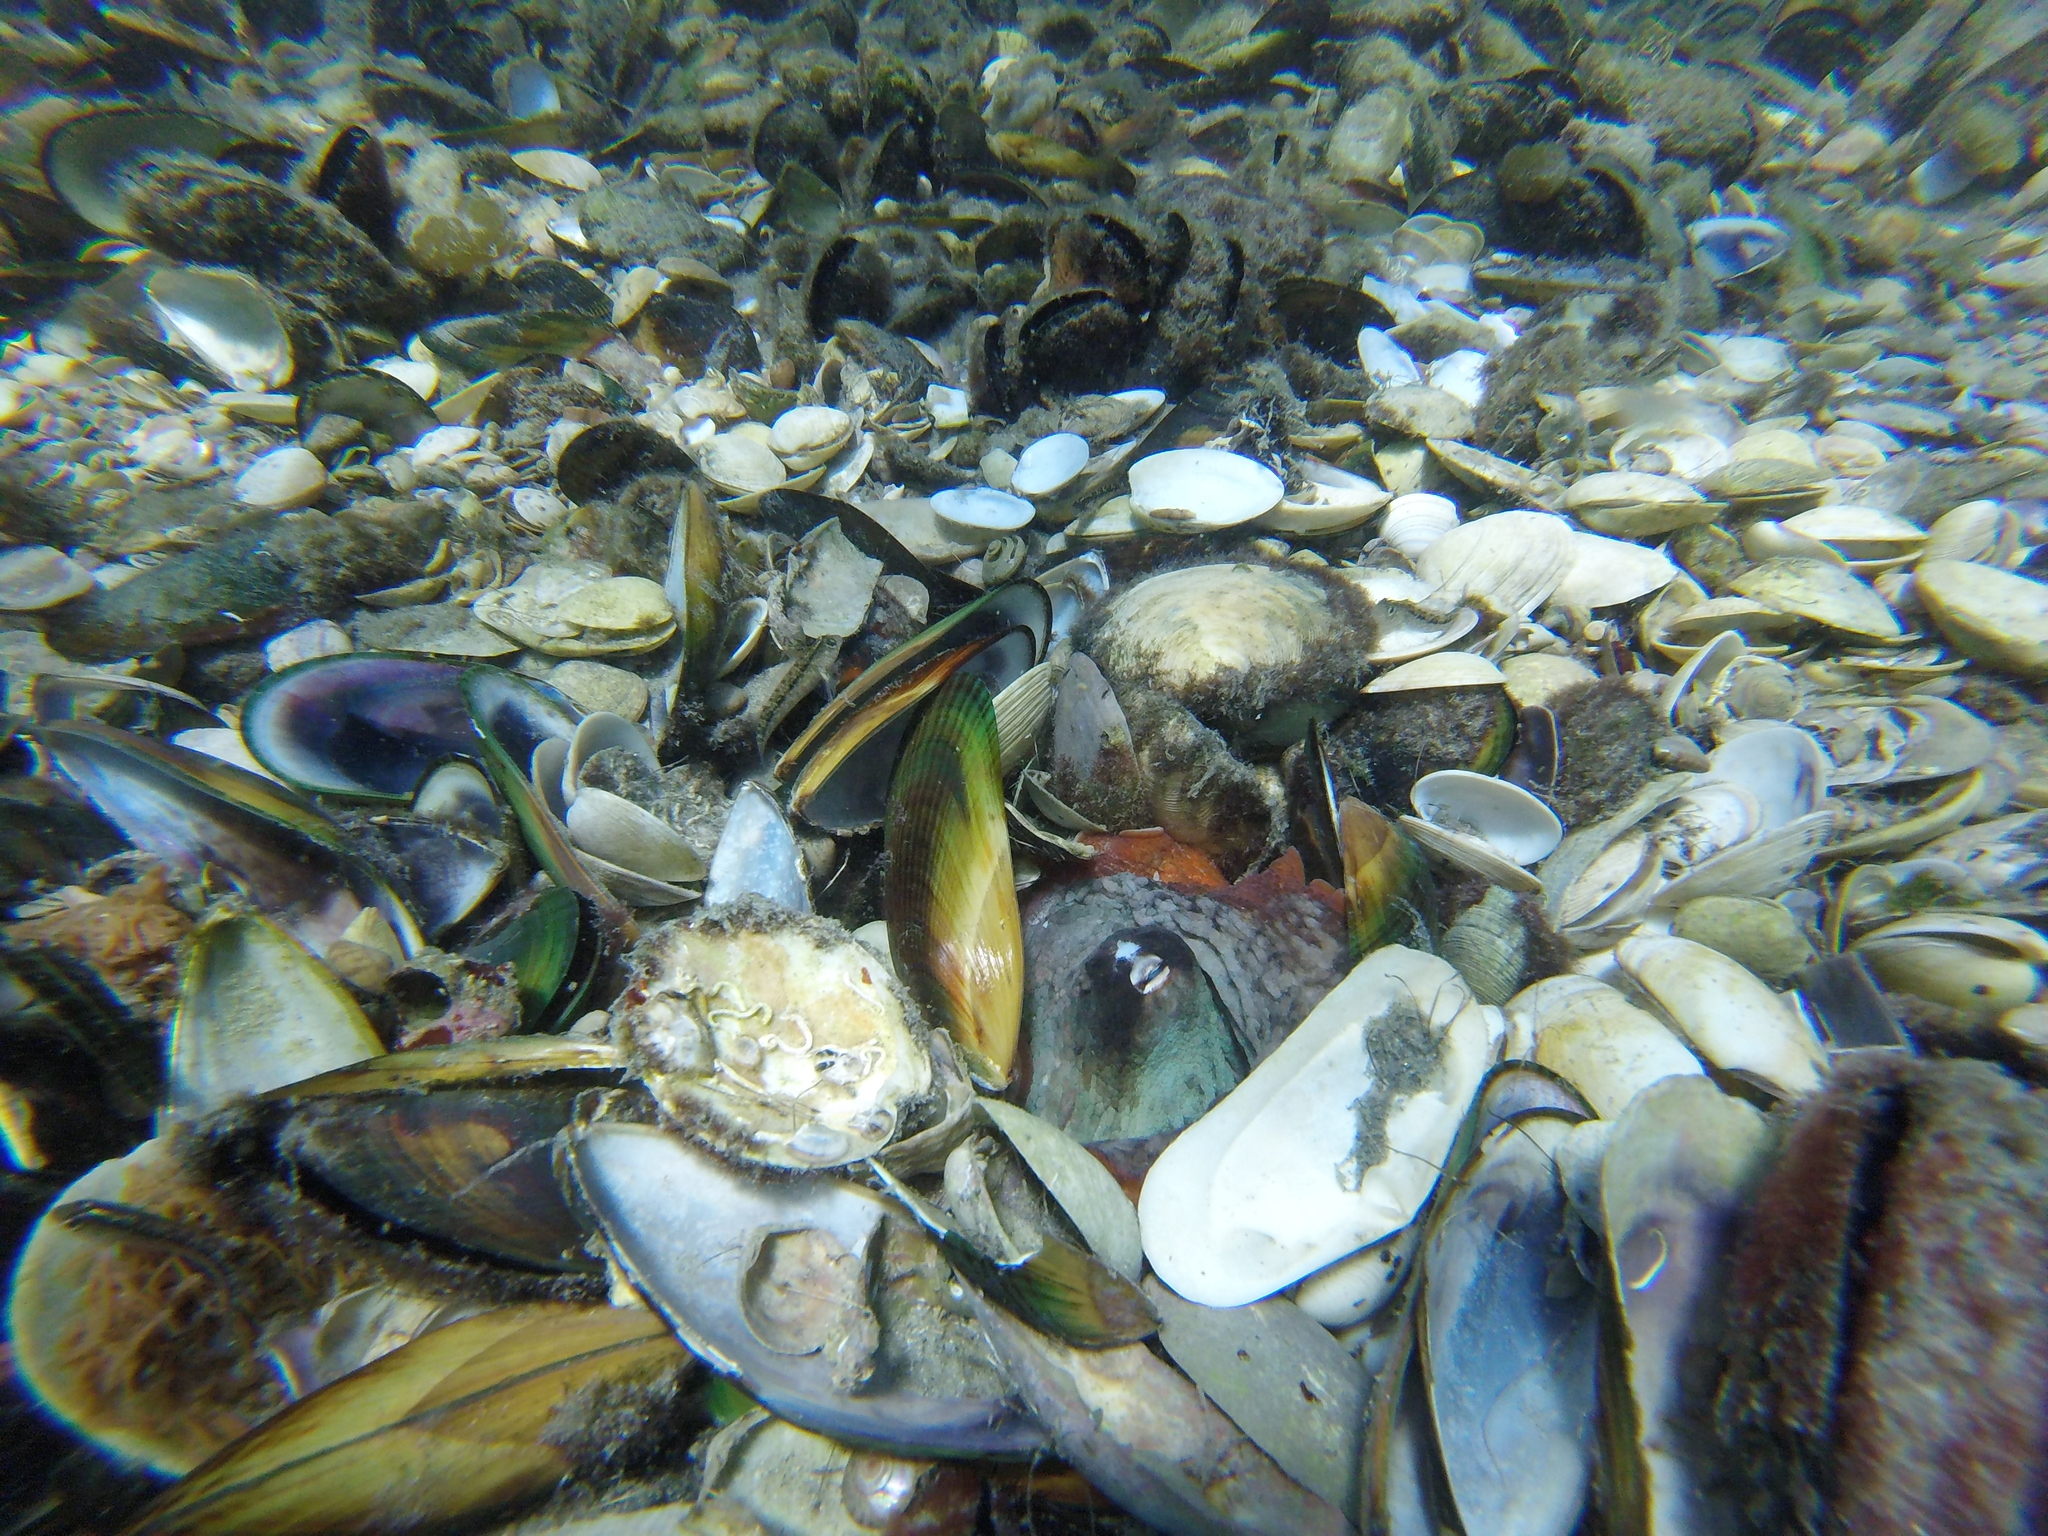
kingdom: Animalia
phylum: Mollusca
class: Cephalopoda
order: Octopoda
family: Octopodidae
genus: Octopus
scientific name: Octopus tetricus
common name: Sydney octopus
